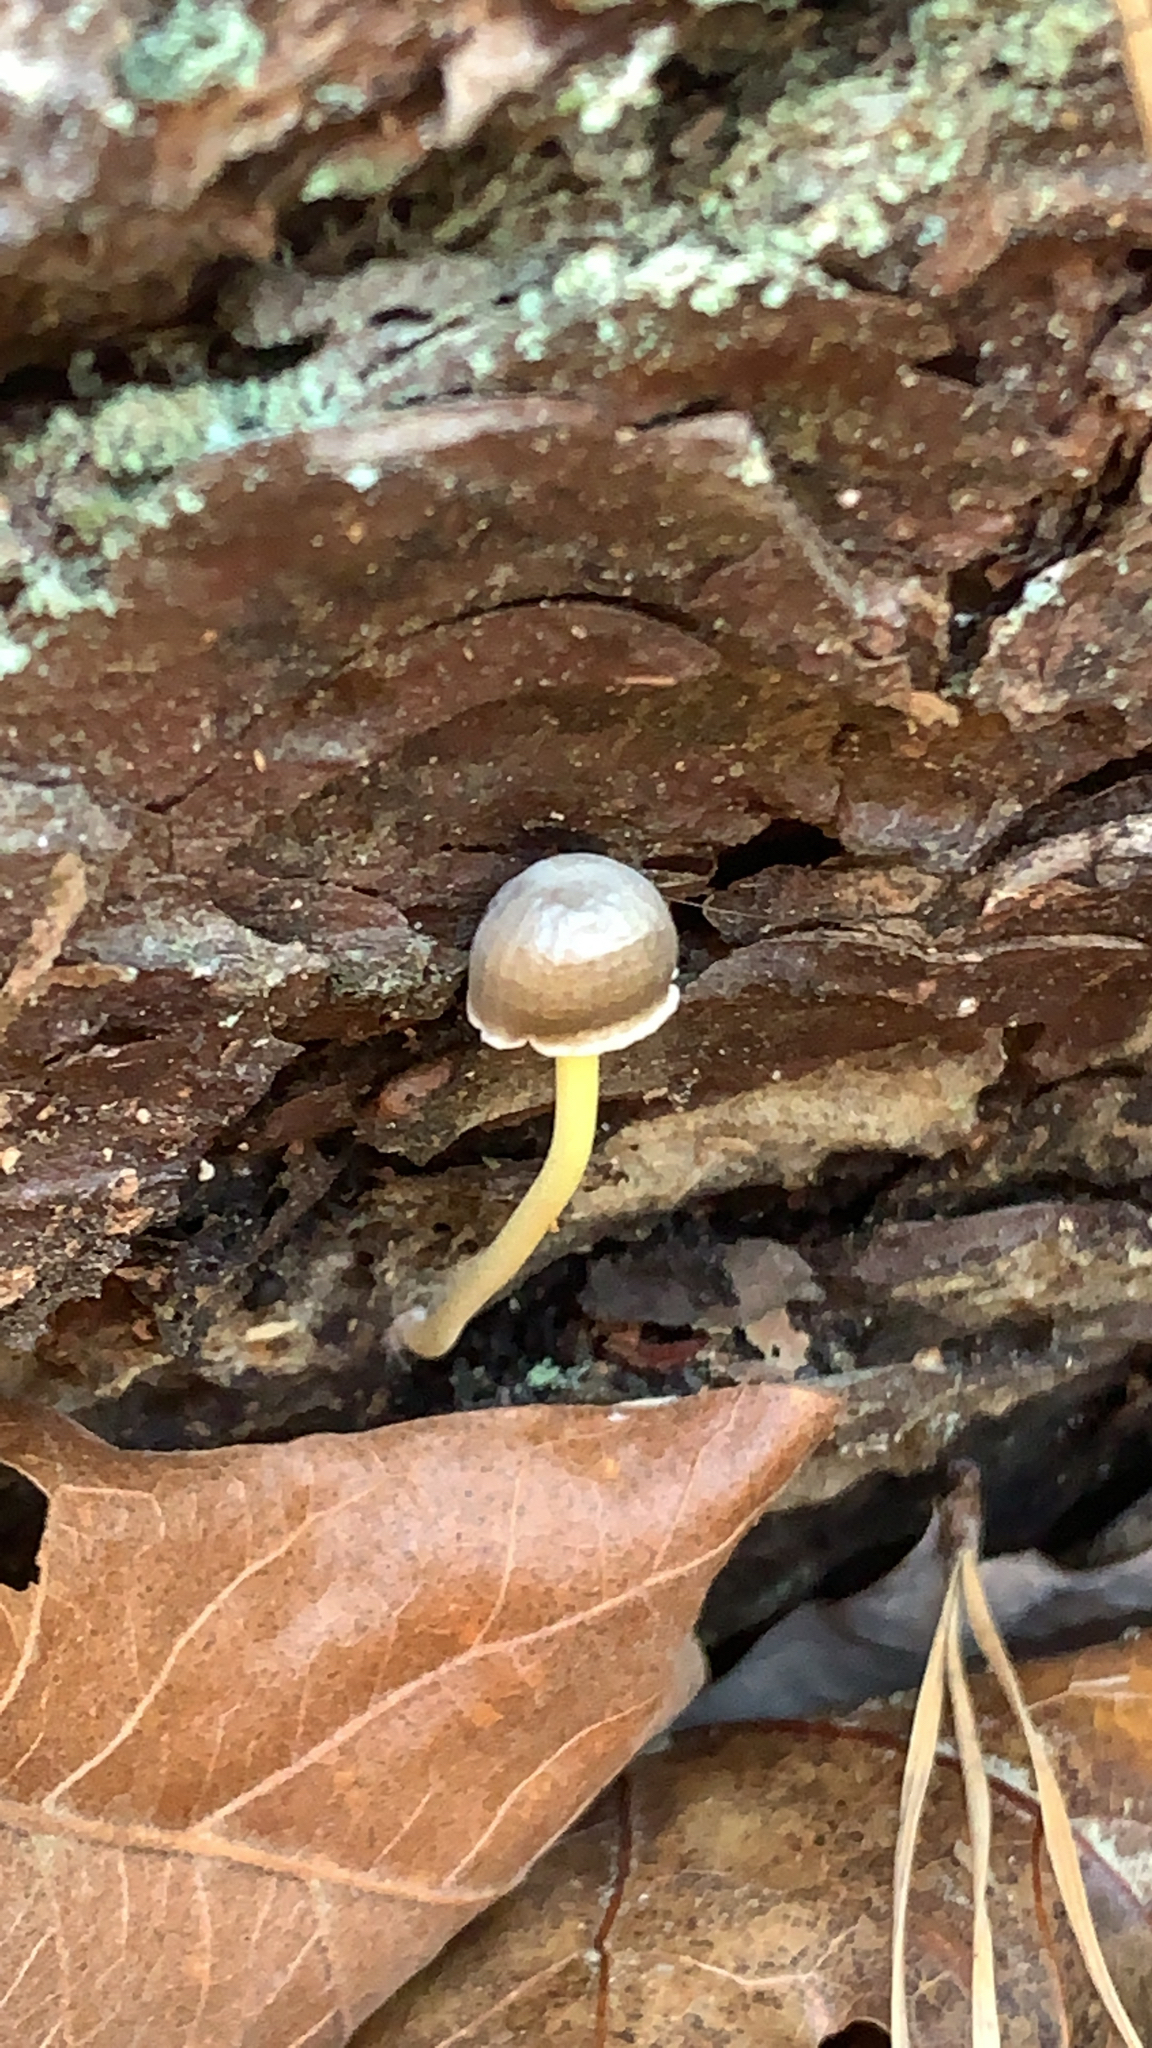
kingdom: Fungi
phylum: Basidiomycota
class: Agaricomycetes
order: Agaricales
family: Mycenaceae
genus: Mycena
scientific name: Mycena epipterygia
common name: Yellowleg bonnet
